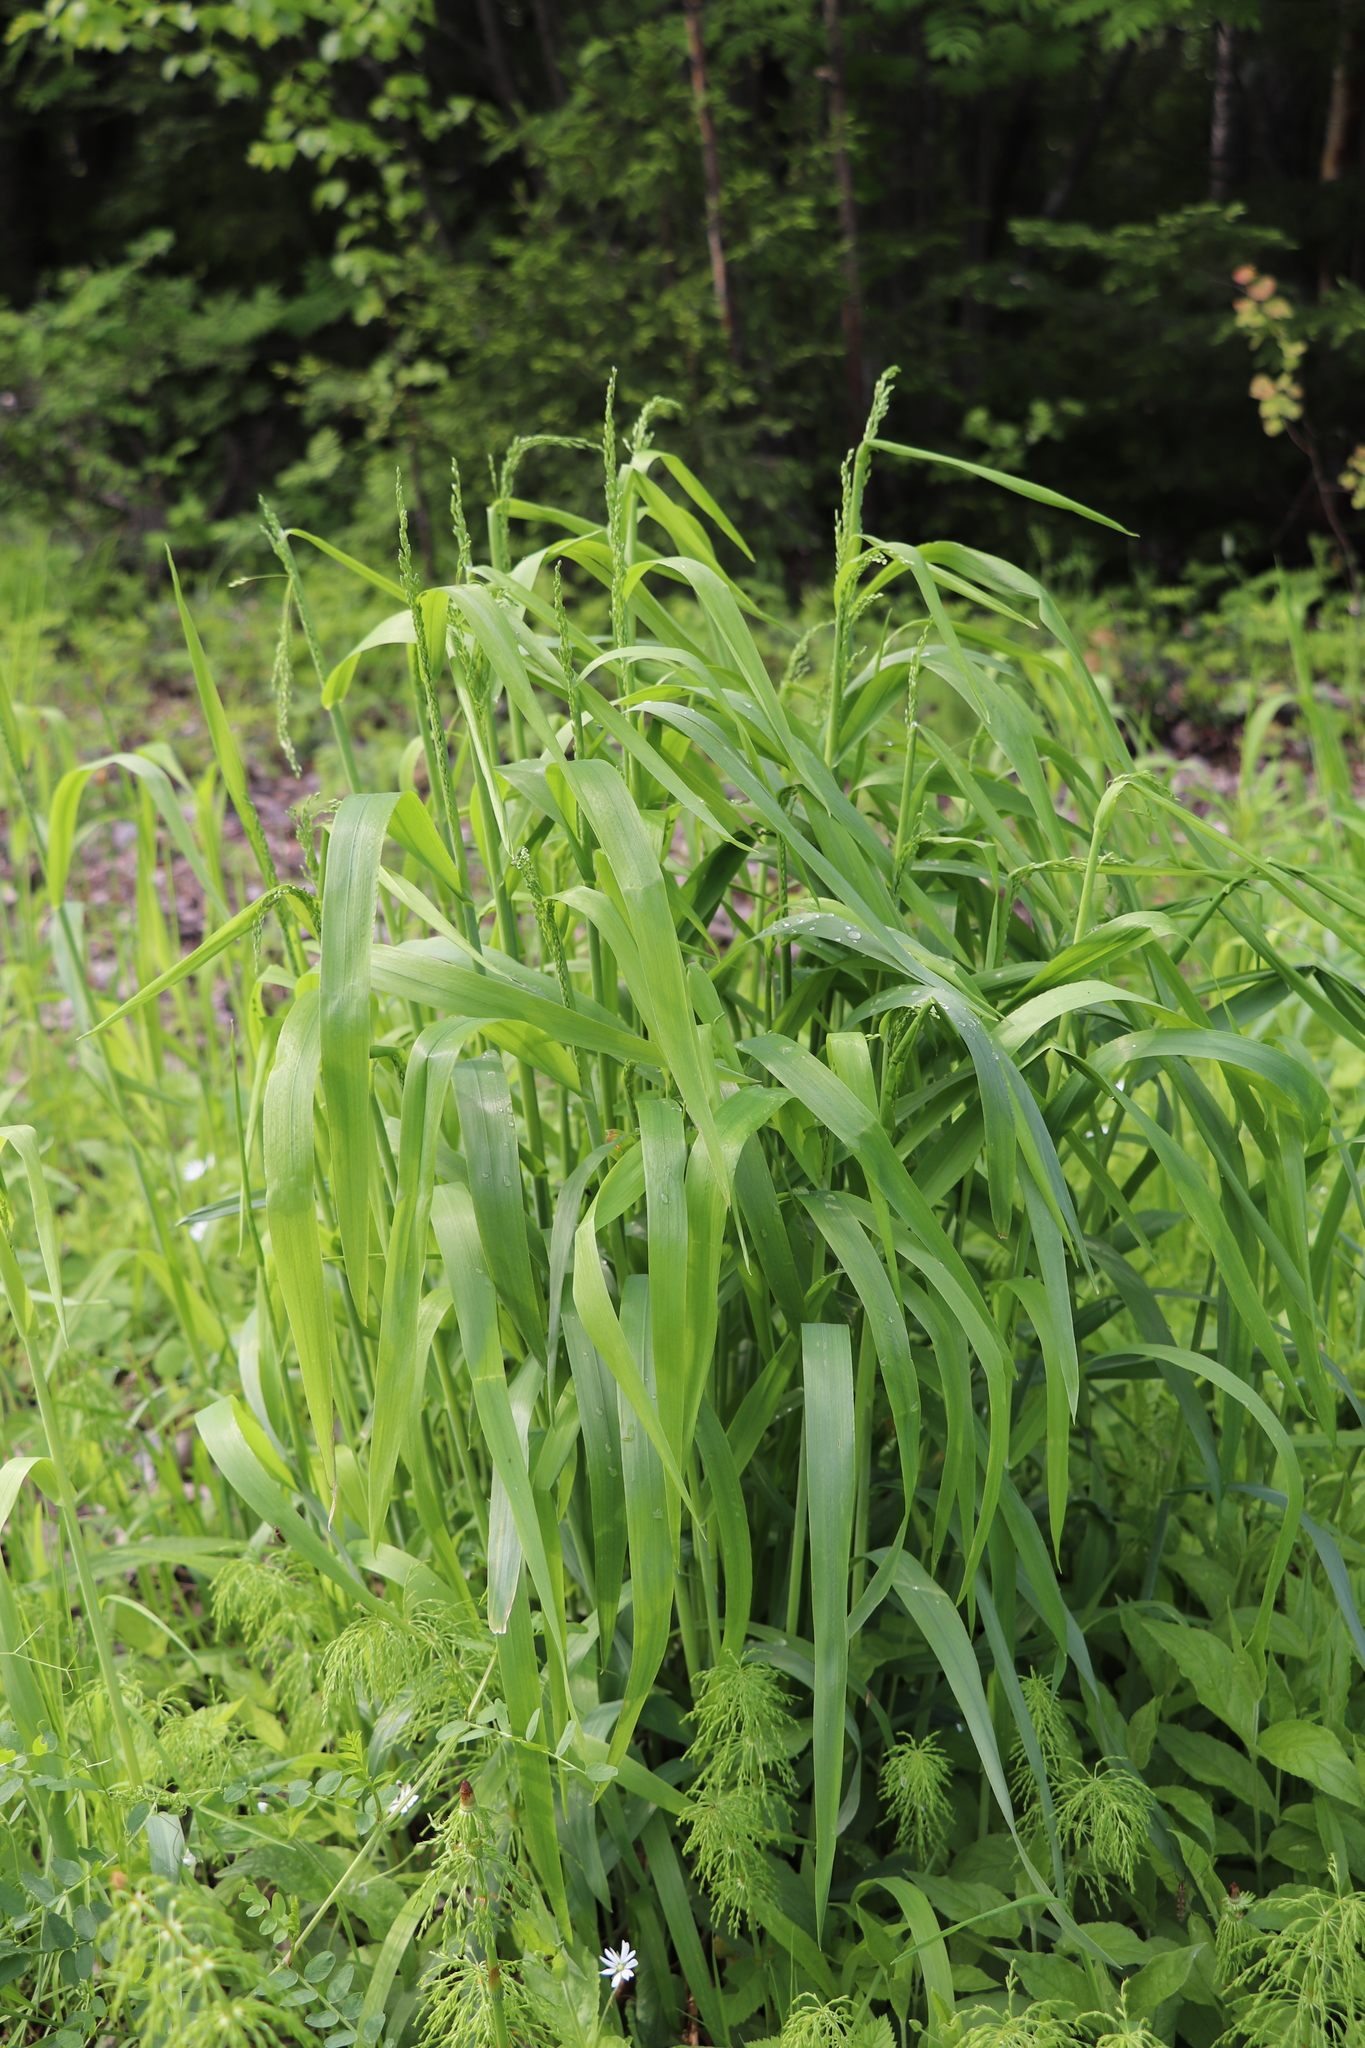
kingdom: Plantae
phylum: Tracheophyta
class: Liliopsida
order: Poales
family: Poaceae
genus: Milium
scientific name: Milium effusum
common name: Wood millet
